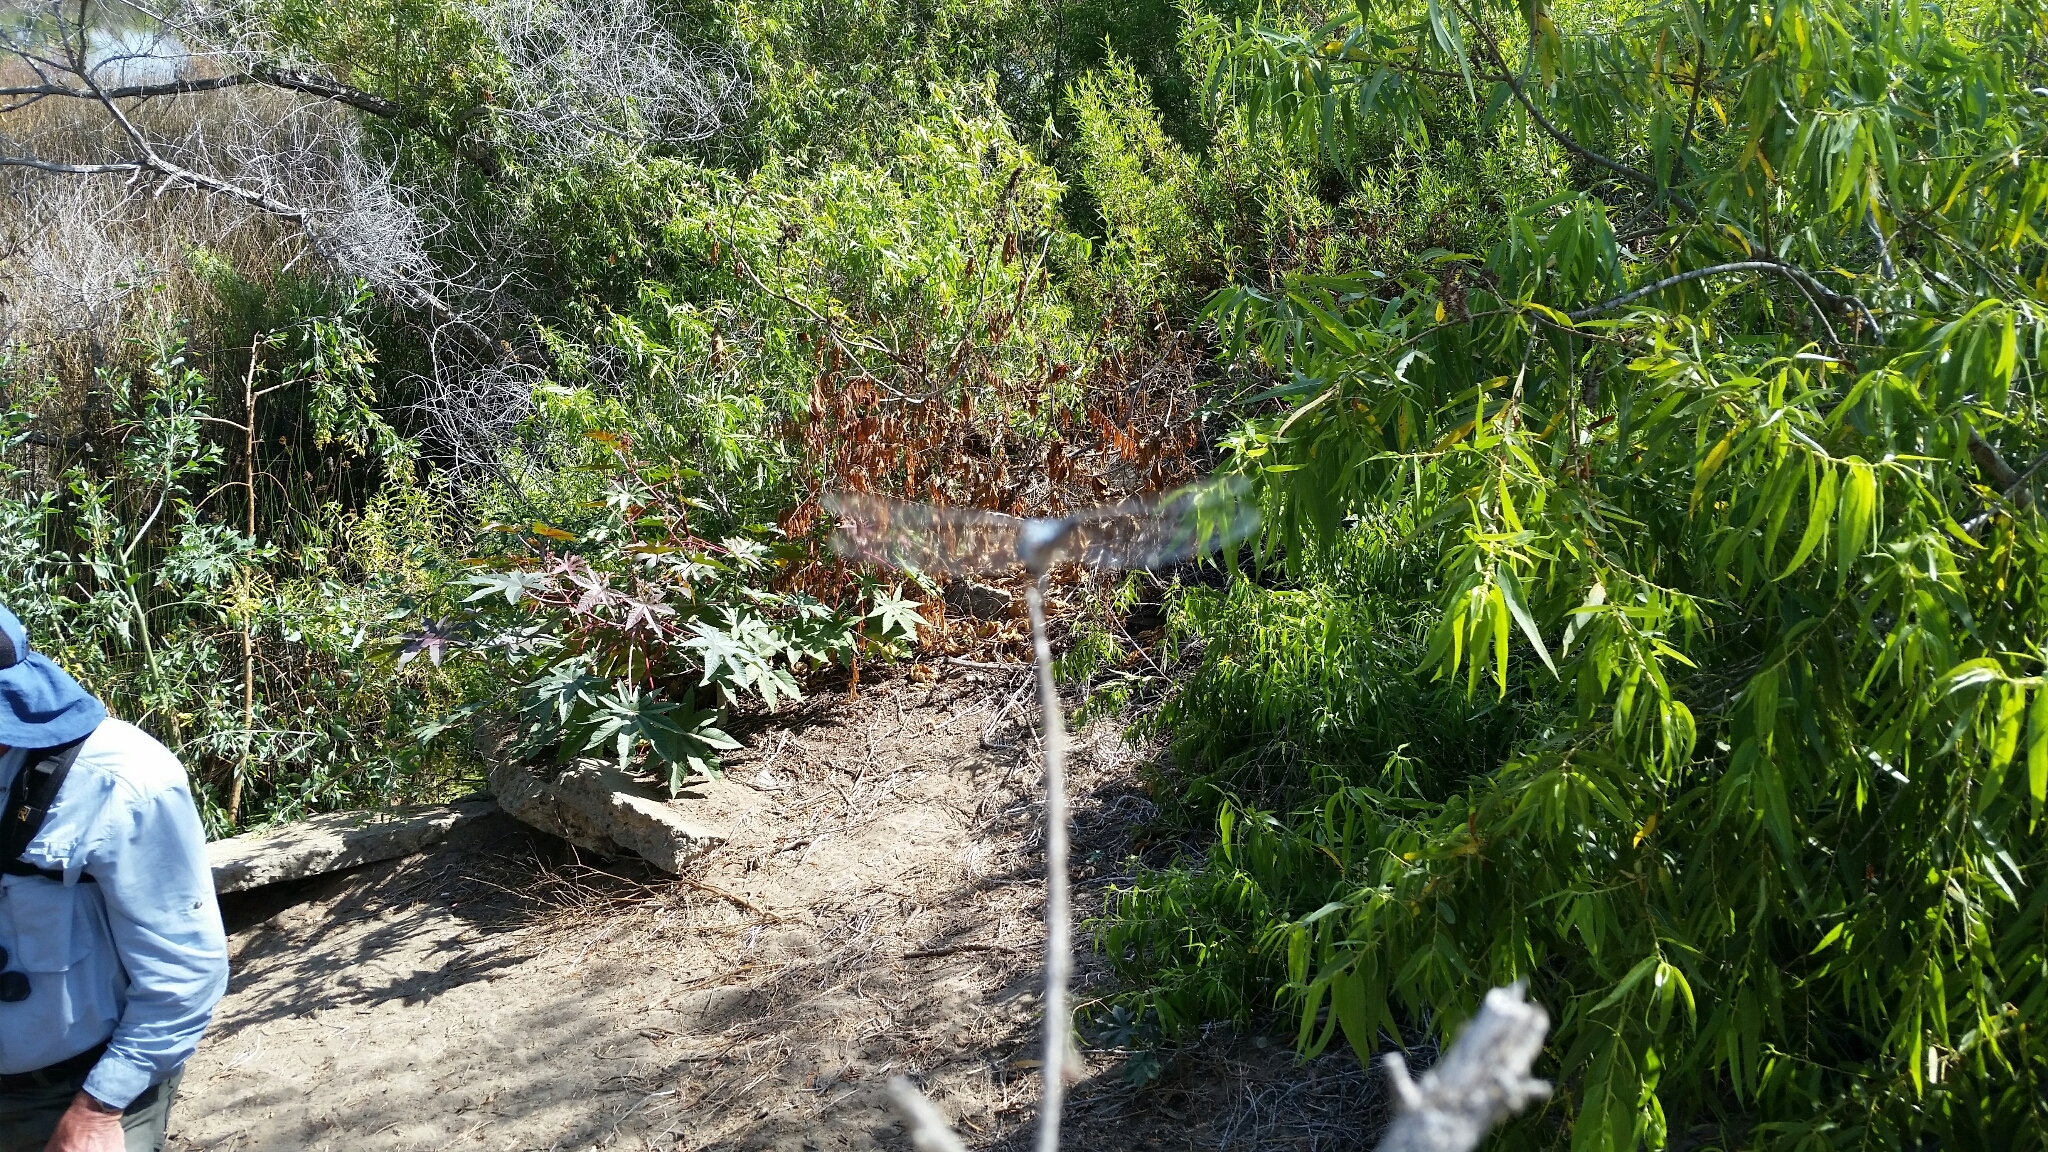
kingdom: Animalia
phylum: Arthropoda
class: Insecta
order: Odonata
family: Libellulidae
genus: Pachydiplax
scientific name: Pachydiplax longipennis
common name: Blue dasher
